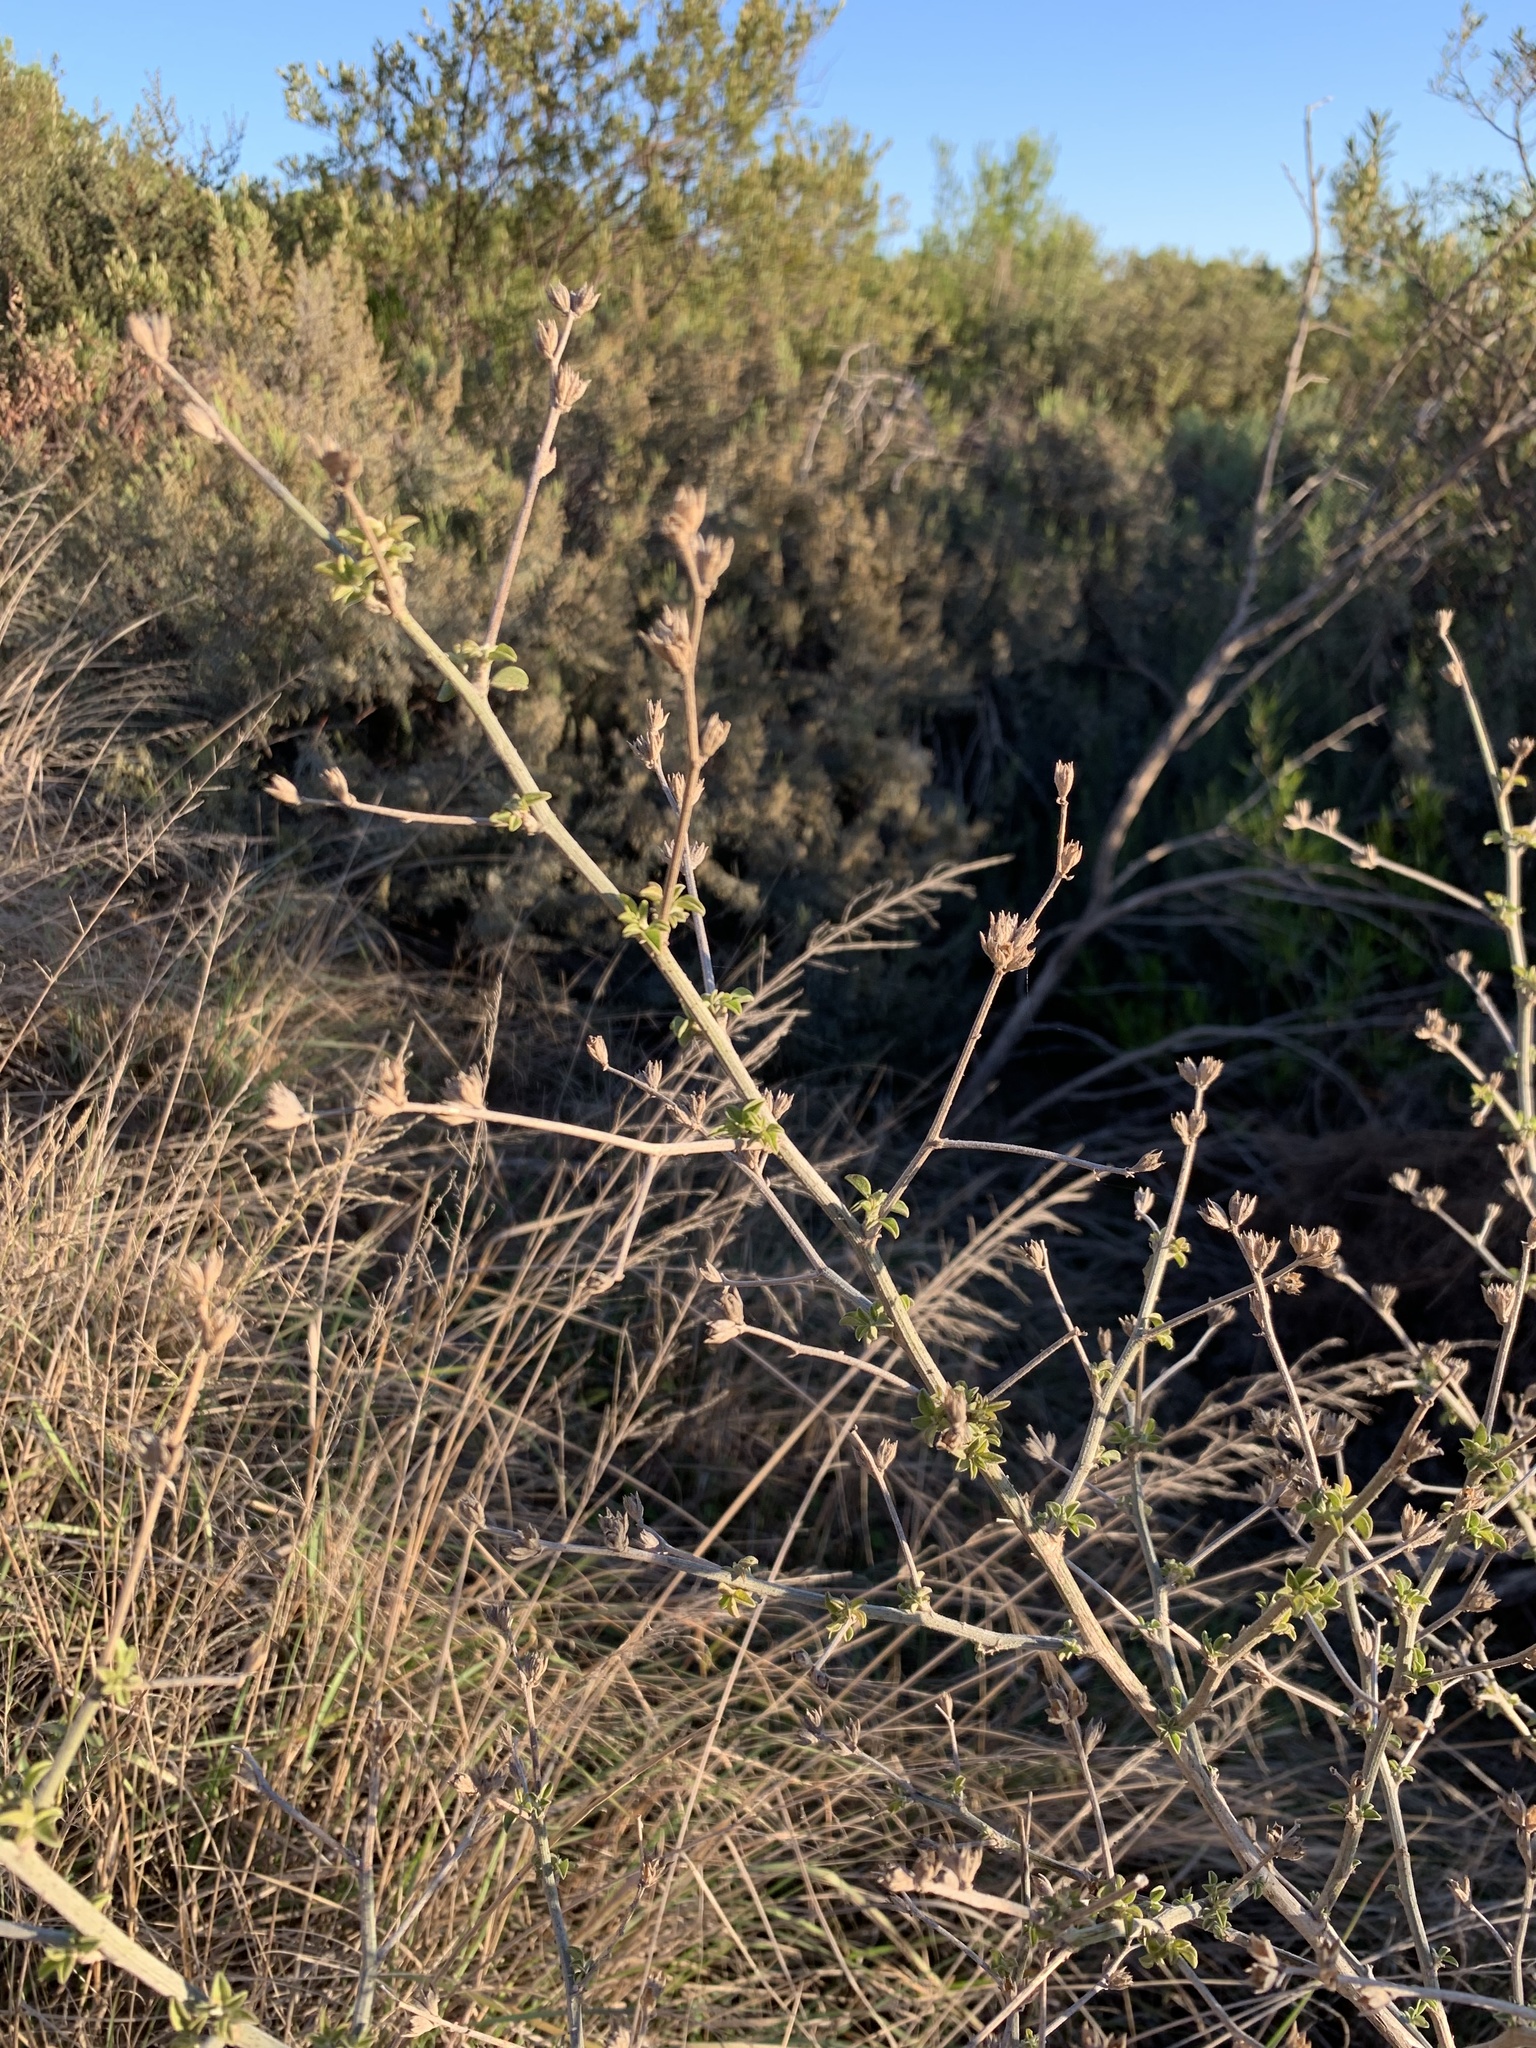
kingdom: Plantae
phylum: Tracheophyta
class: Magnoliopsida
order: Fabales
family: Fabaceae
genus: Psoralea
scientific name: Psoralea hirta
